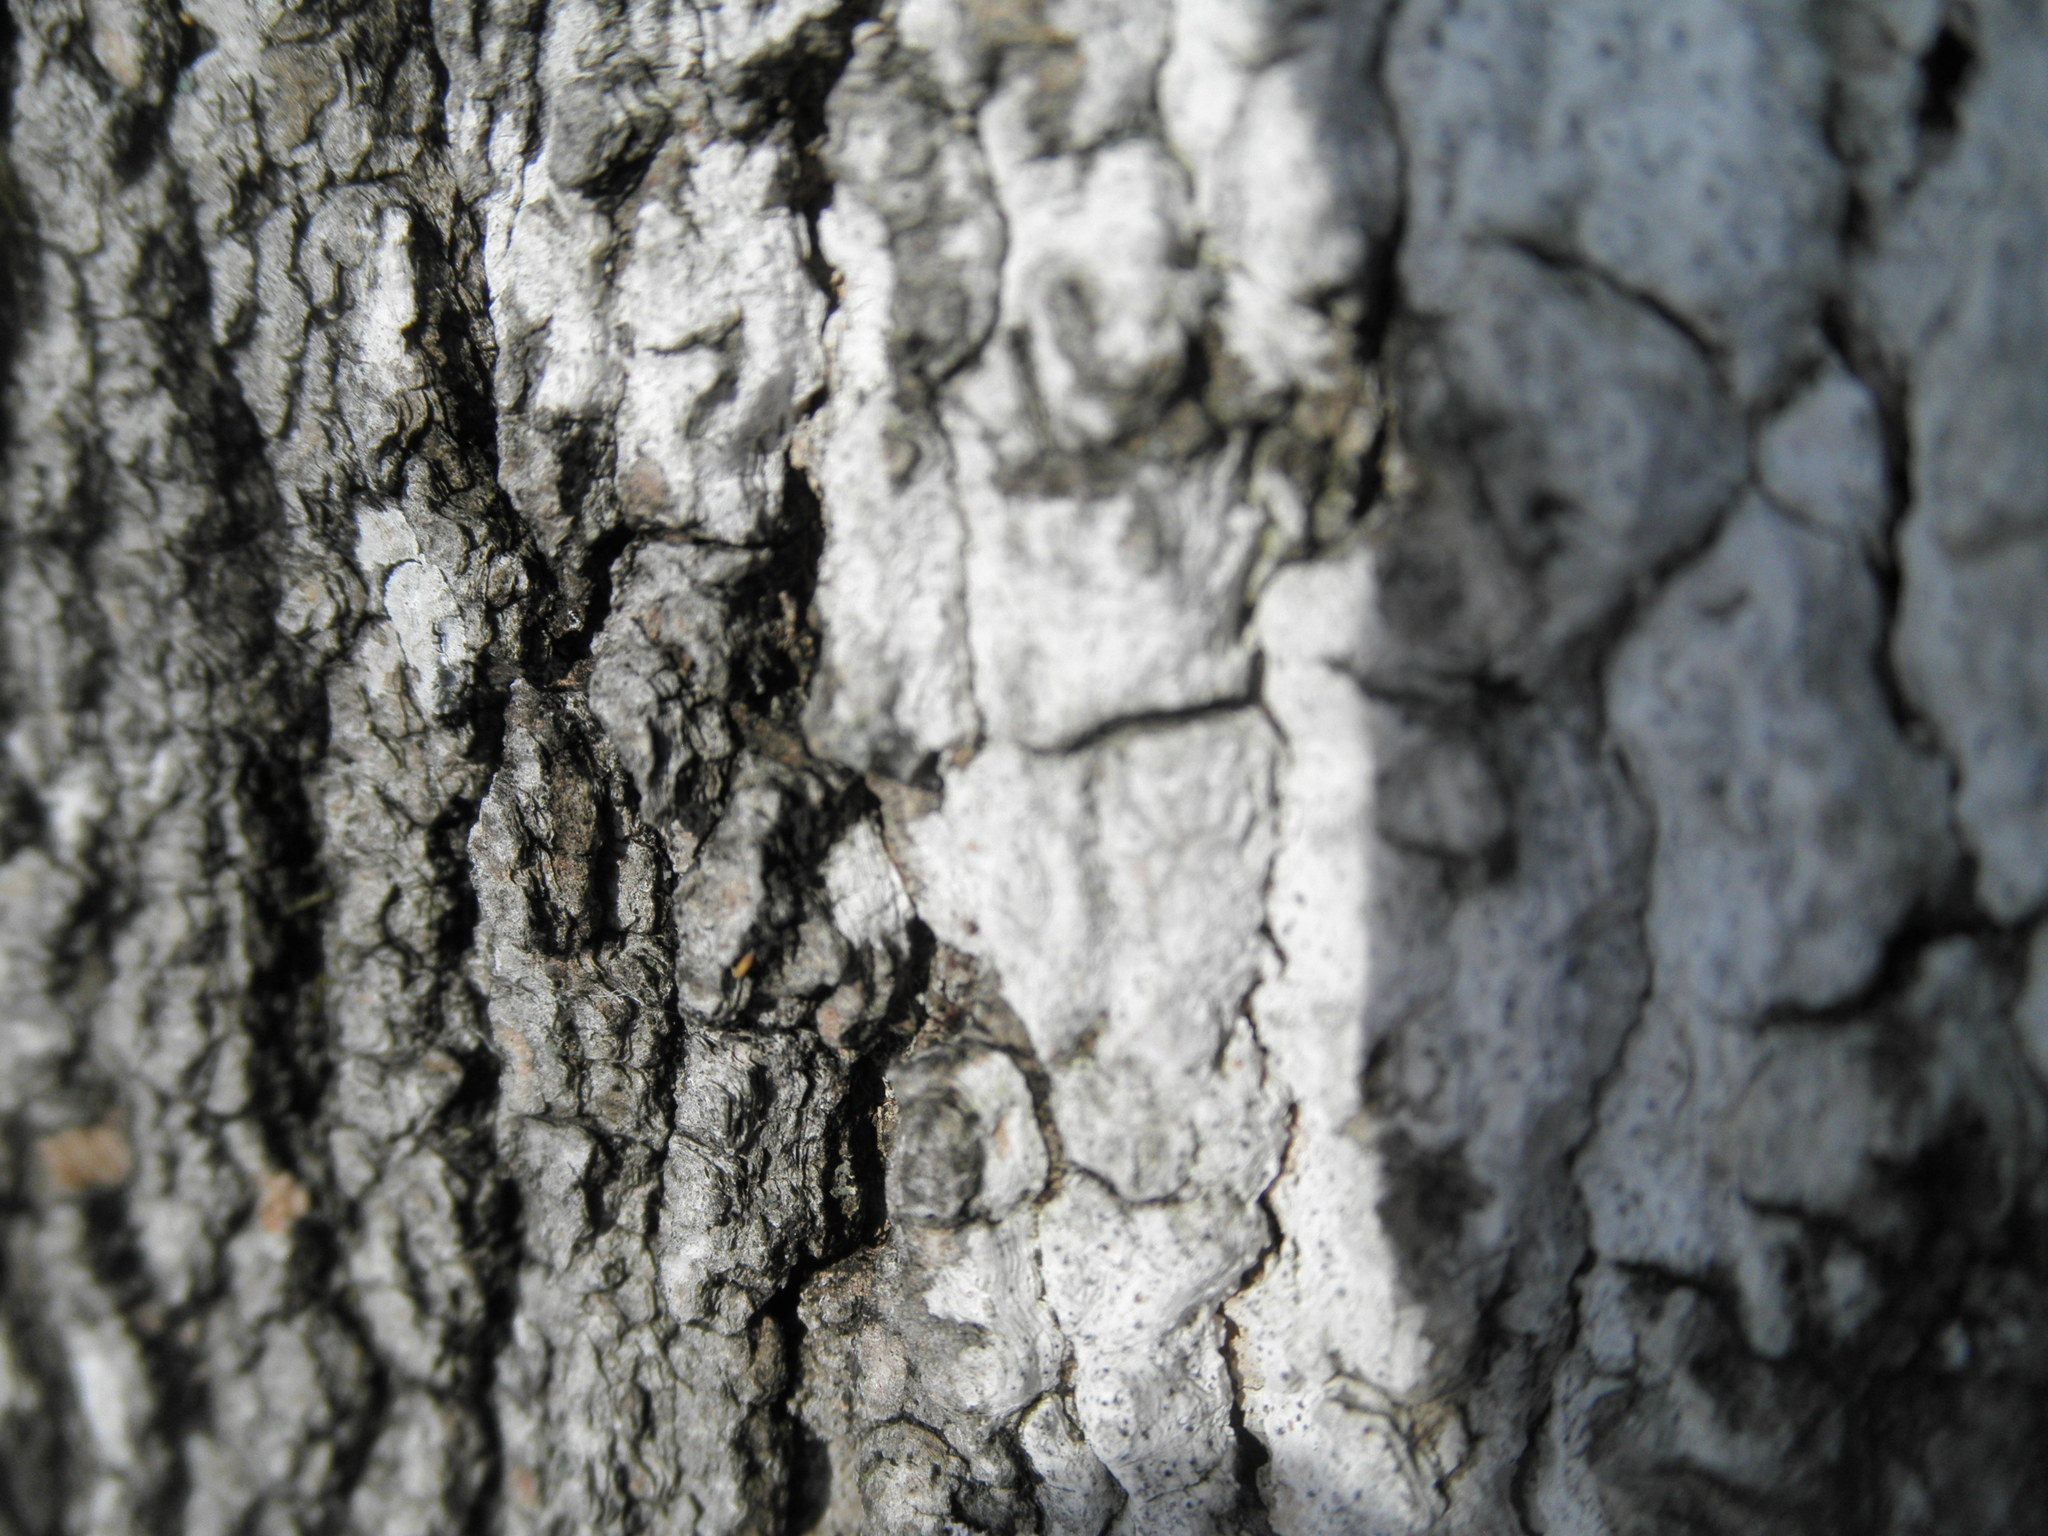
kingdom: Fungi
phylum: Ascomycota
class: Dothideomycetes
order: Trypetheliales
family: Trypetheliaceae
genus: Arthopyrenia
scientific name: Arthopyrenia fallaciosa
